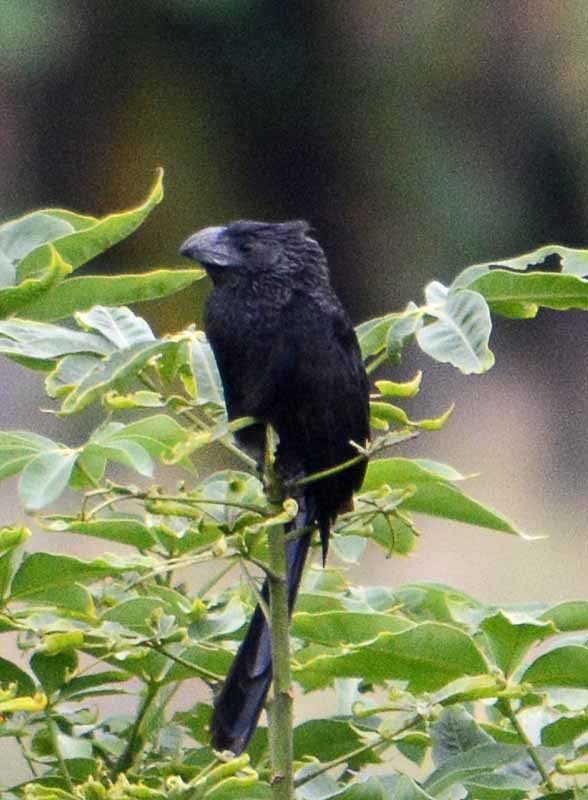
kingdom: Animalia
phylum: Chordata
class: Aves
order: Cuculiformes
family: Cuculidae
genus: Crotophaga
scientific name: Crotophaga sulcirostris
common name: Groove-billed ani
